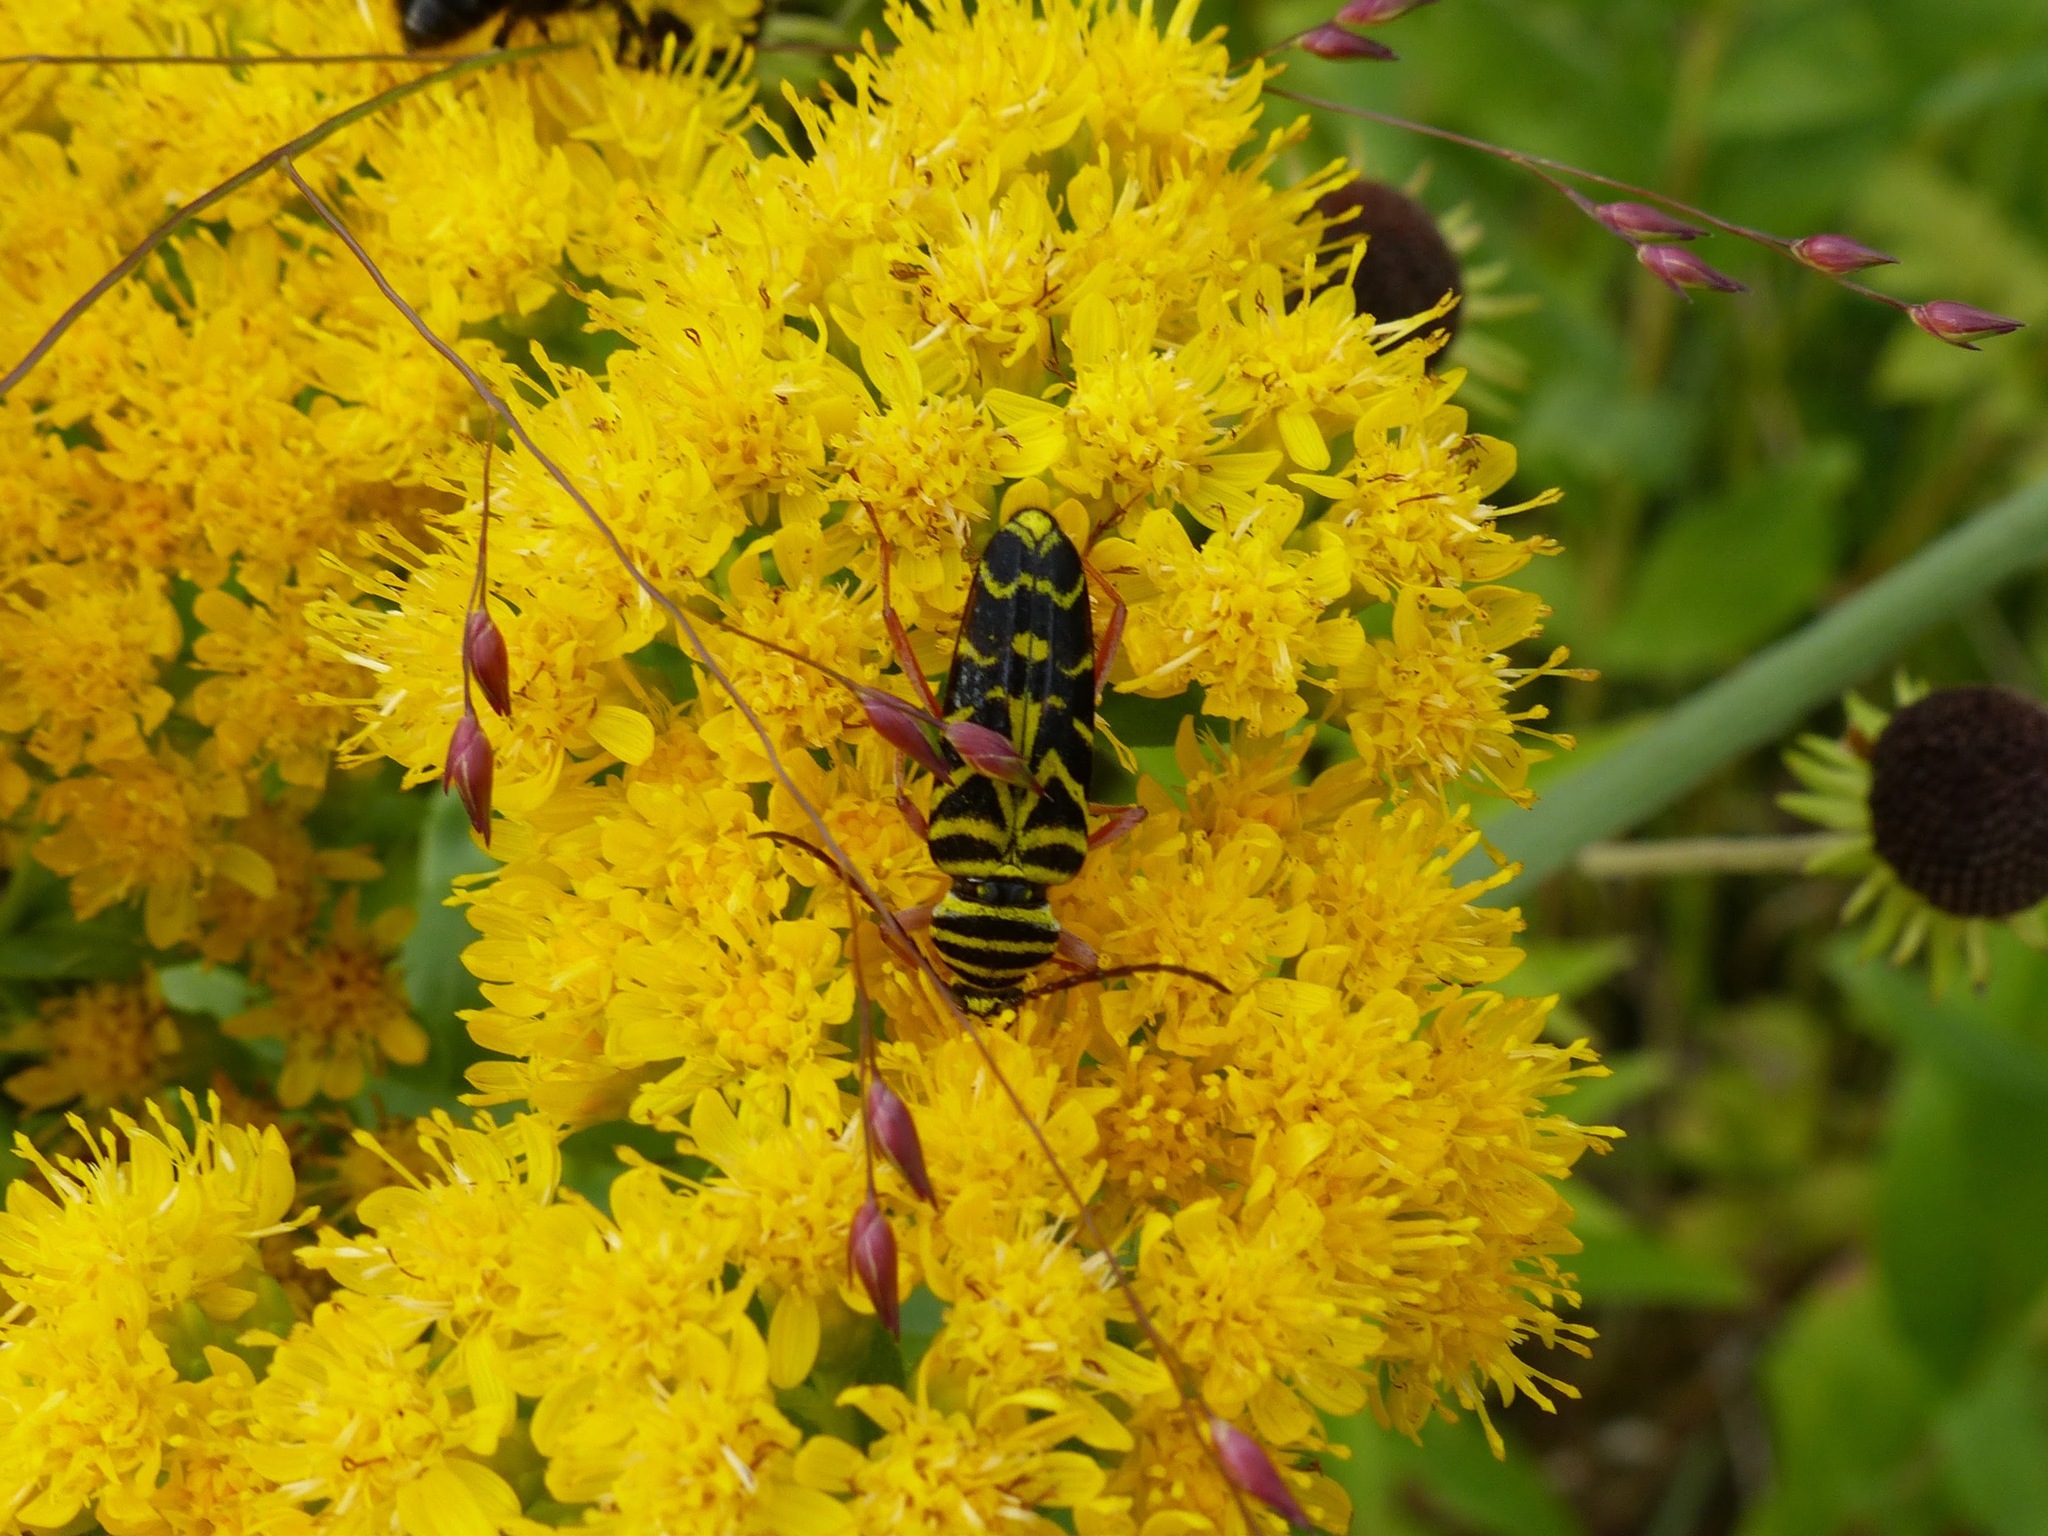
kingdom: Animalia
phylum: Arthropoda
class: Insecta
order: Coleoptera
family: Cerambycidae
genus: Megacyllene
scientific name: Megacyllene robiniae
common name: Locust borer
